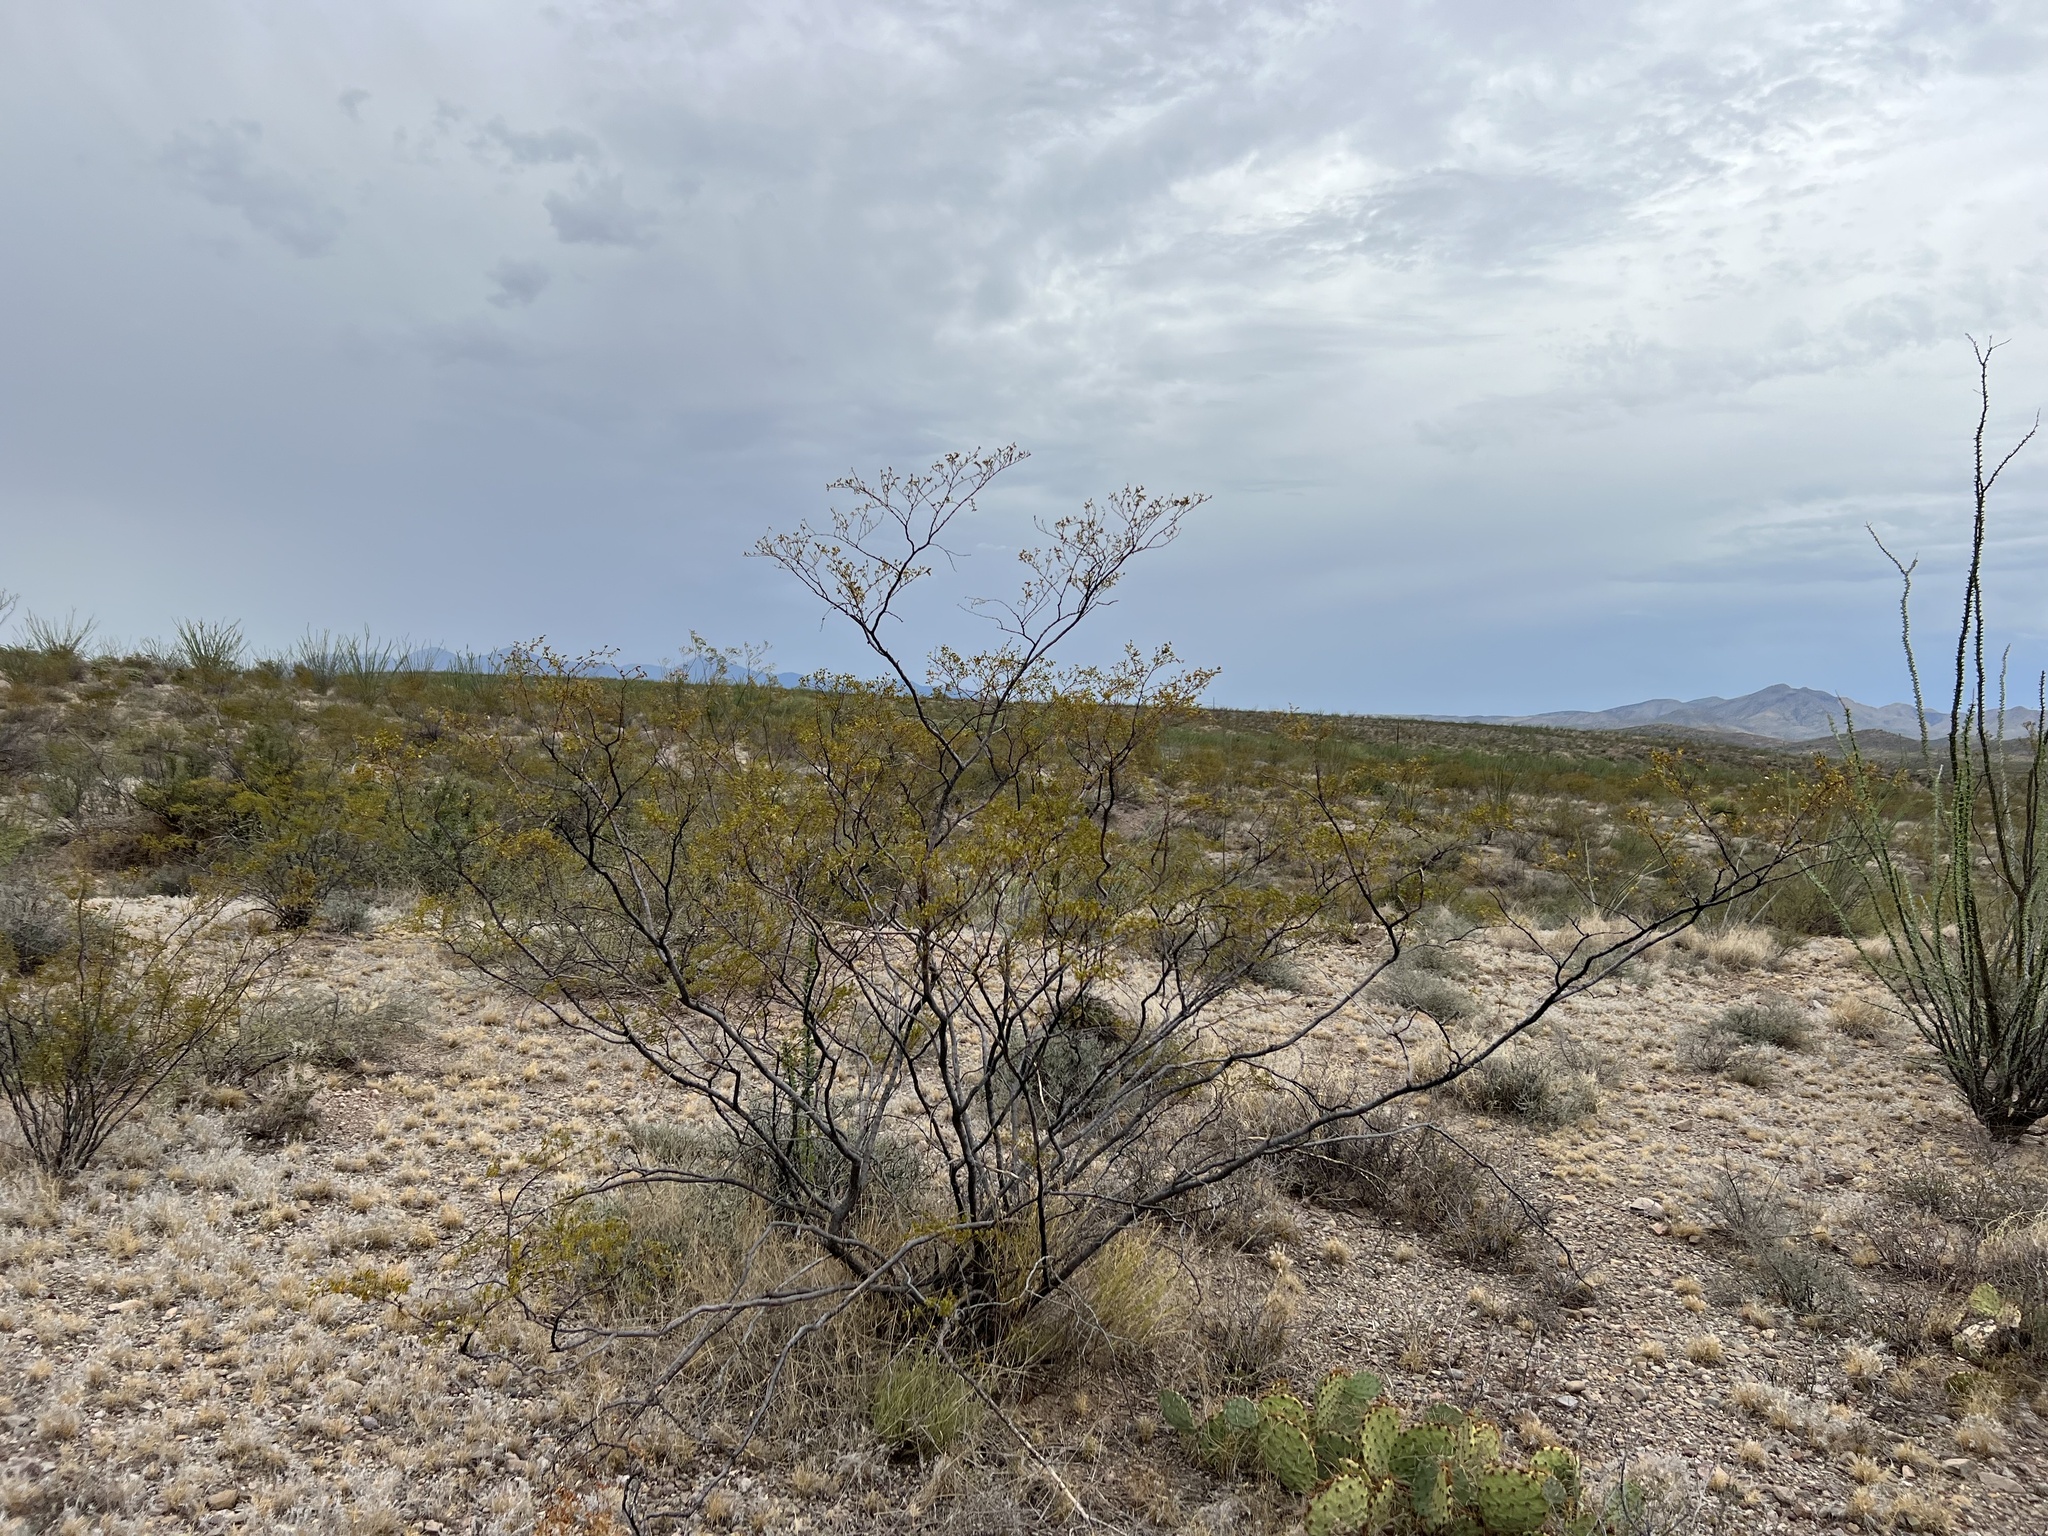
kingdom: Plantae
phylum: Tracheophyta
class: Magnoliopsida
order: Zygophyllales
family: Zygophyllaceae
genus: Larrea
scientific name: Larrea tridentata
